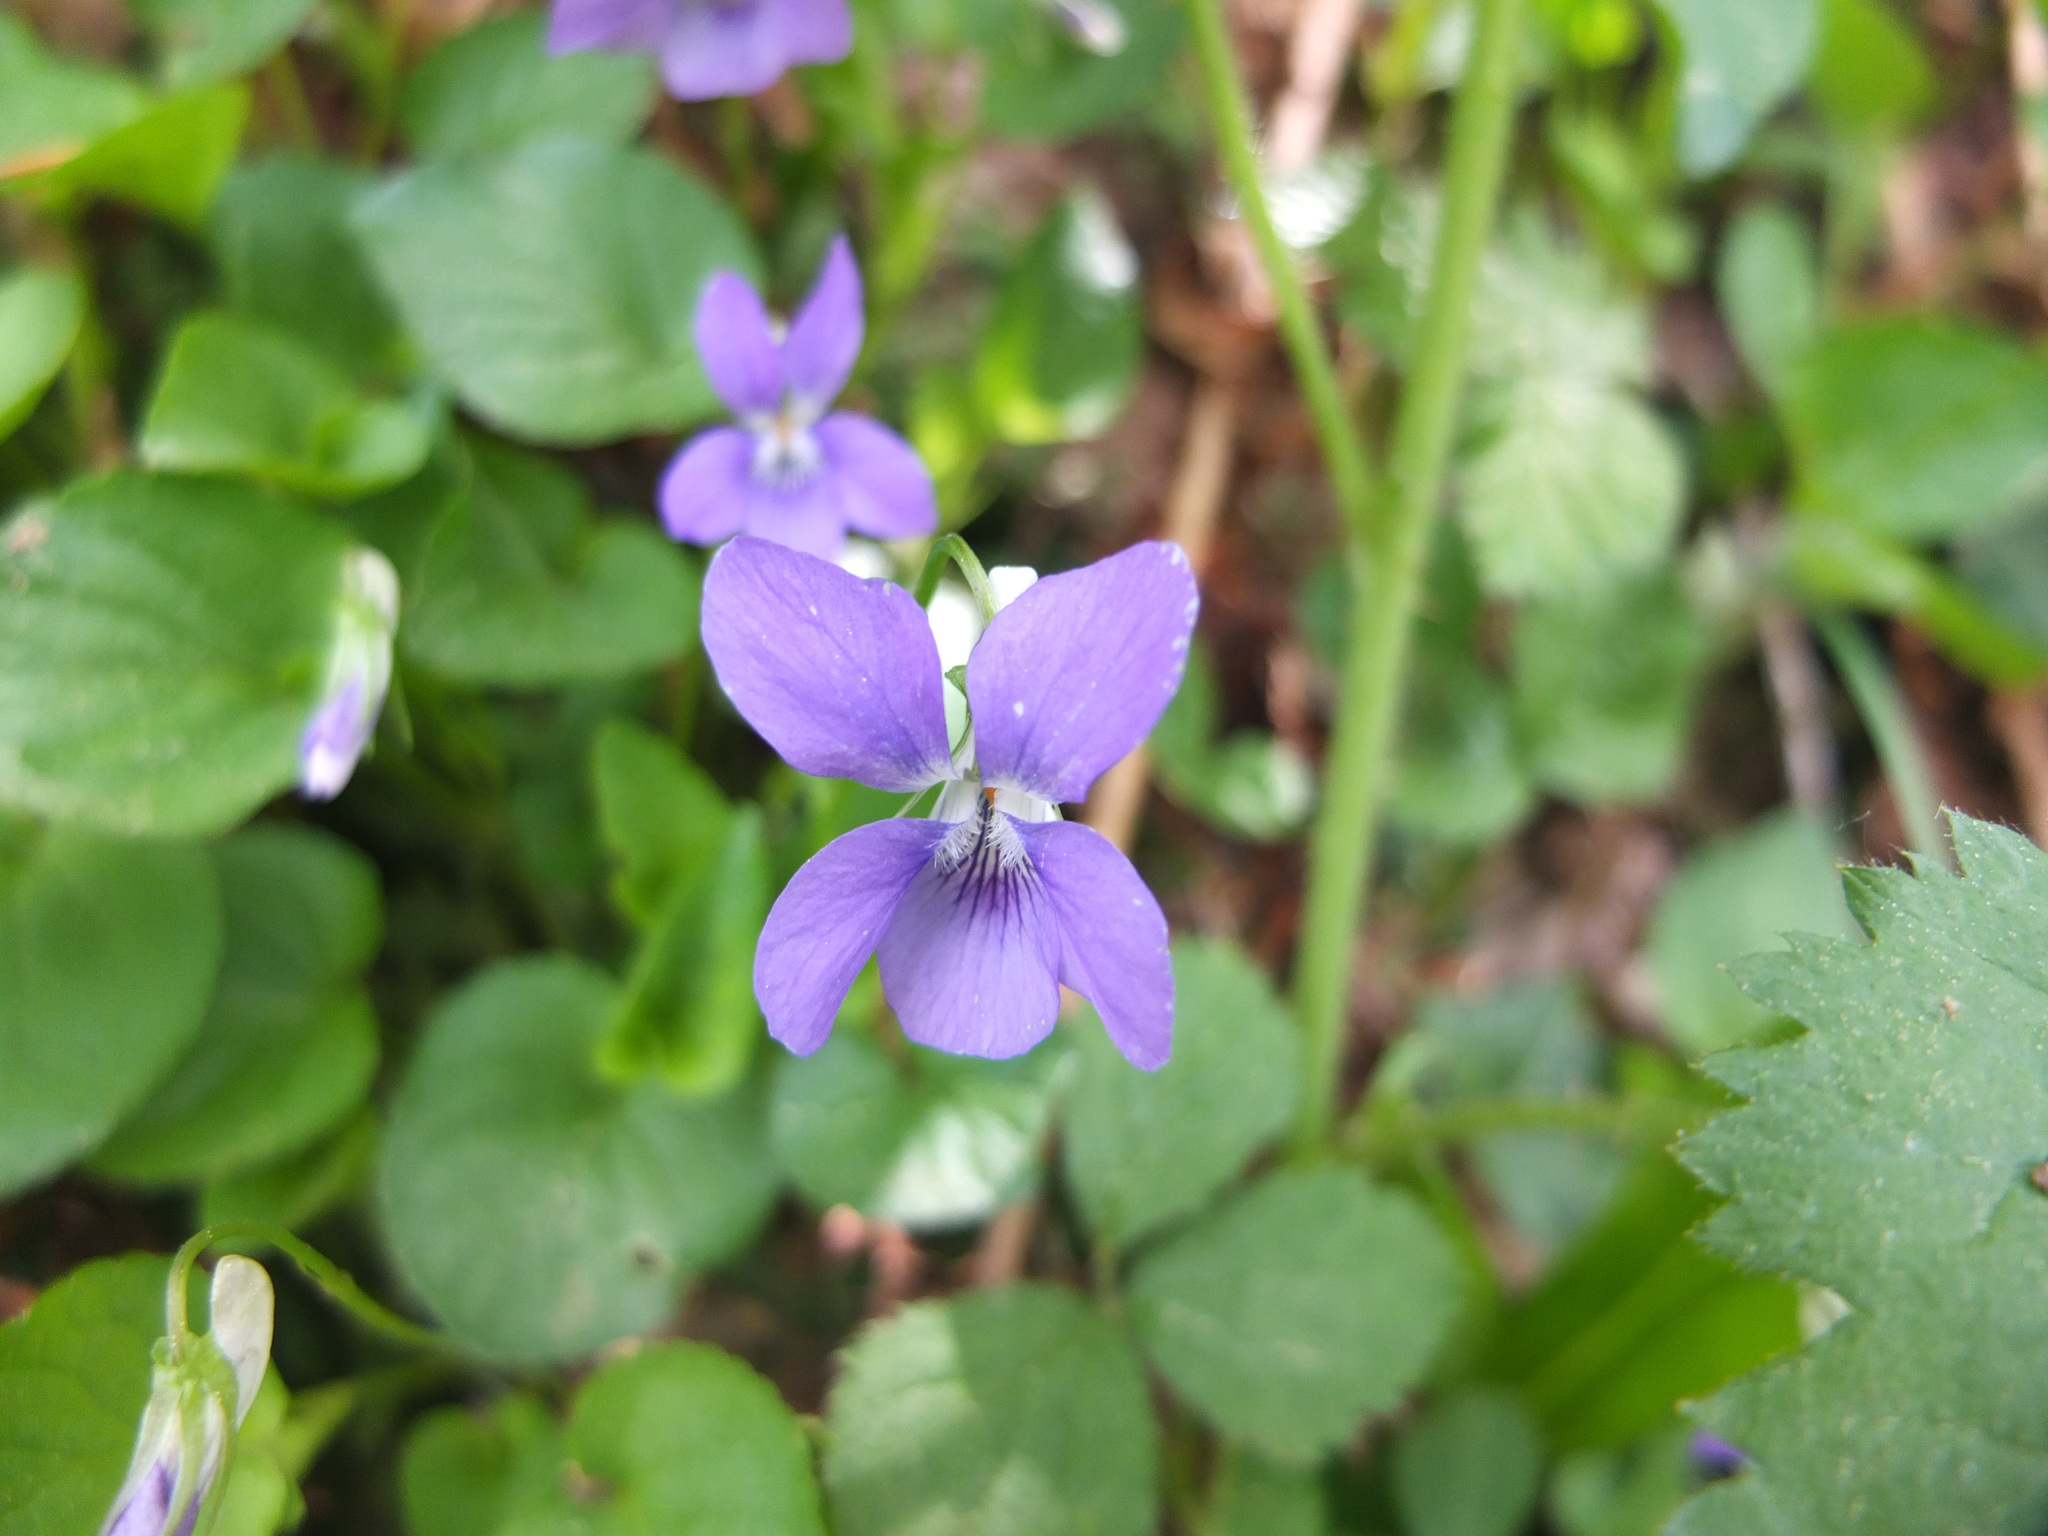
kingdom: Plantae
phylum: Tracheophyta
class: Magnoliopsida
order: Malpighiales
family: Violaceae
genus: Viola
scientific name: Viola riviniana
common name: Common dog-violet
